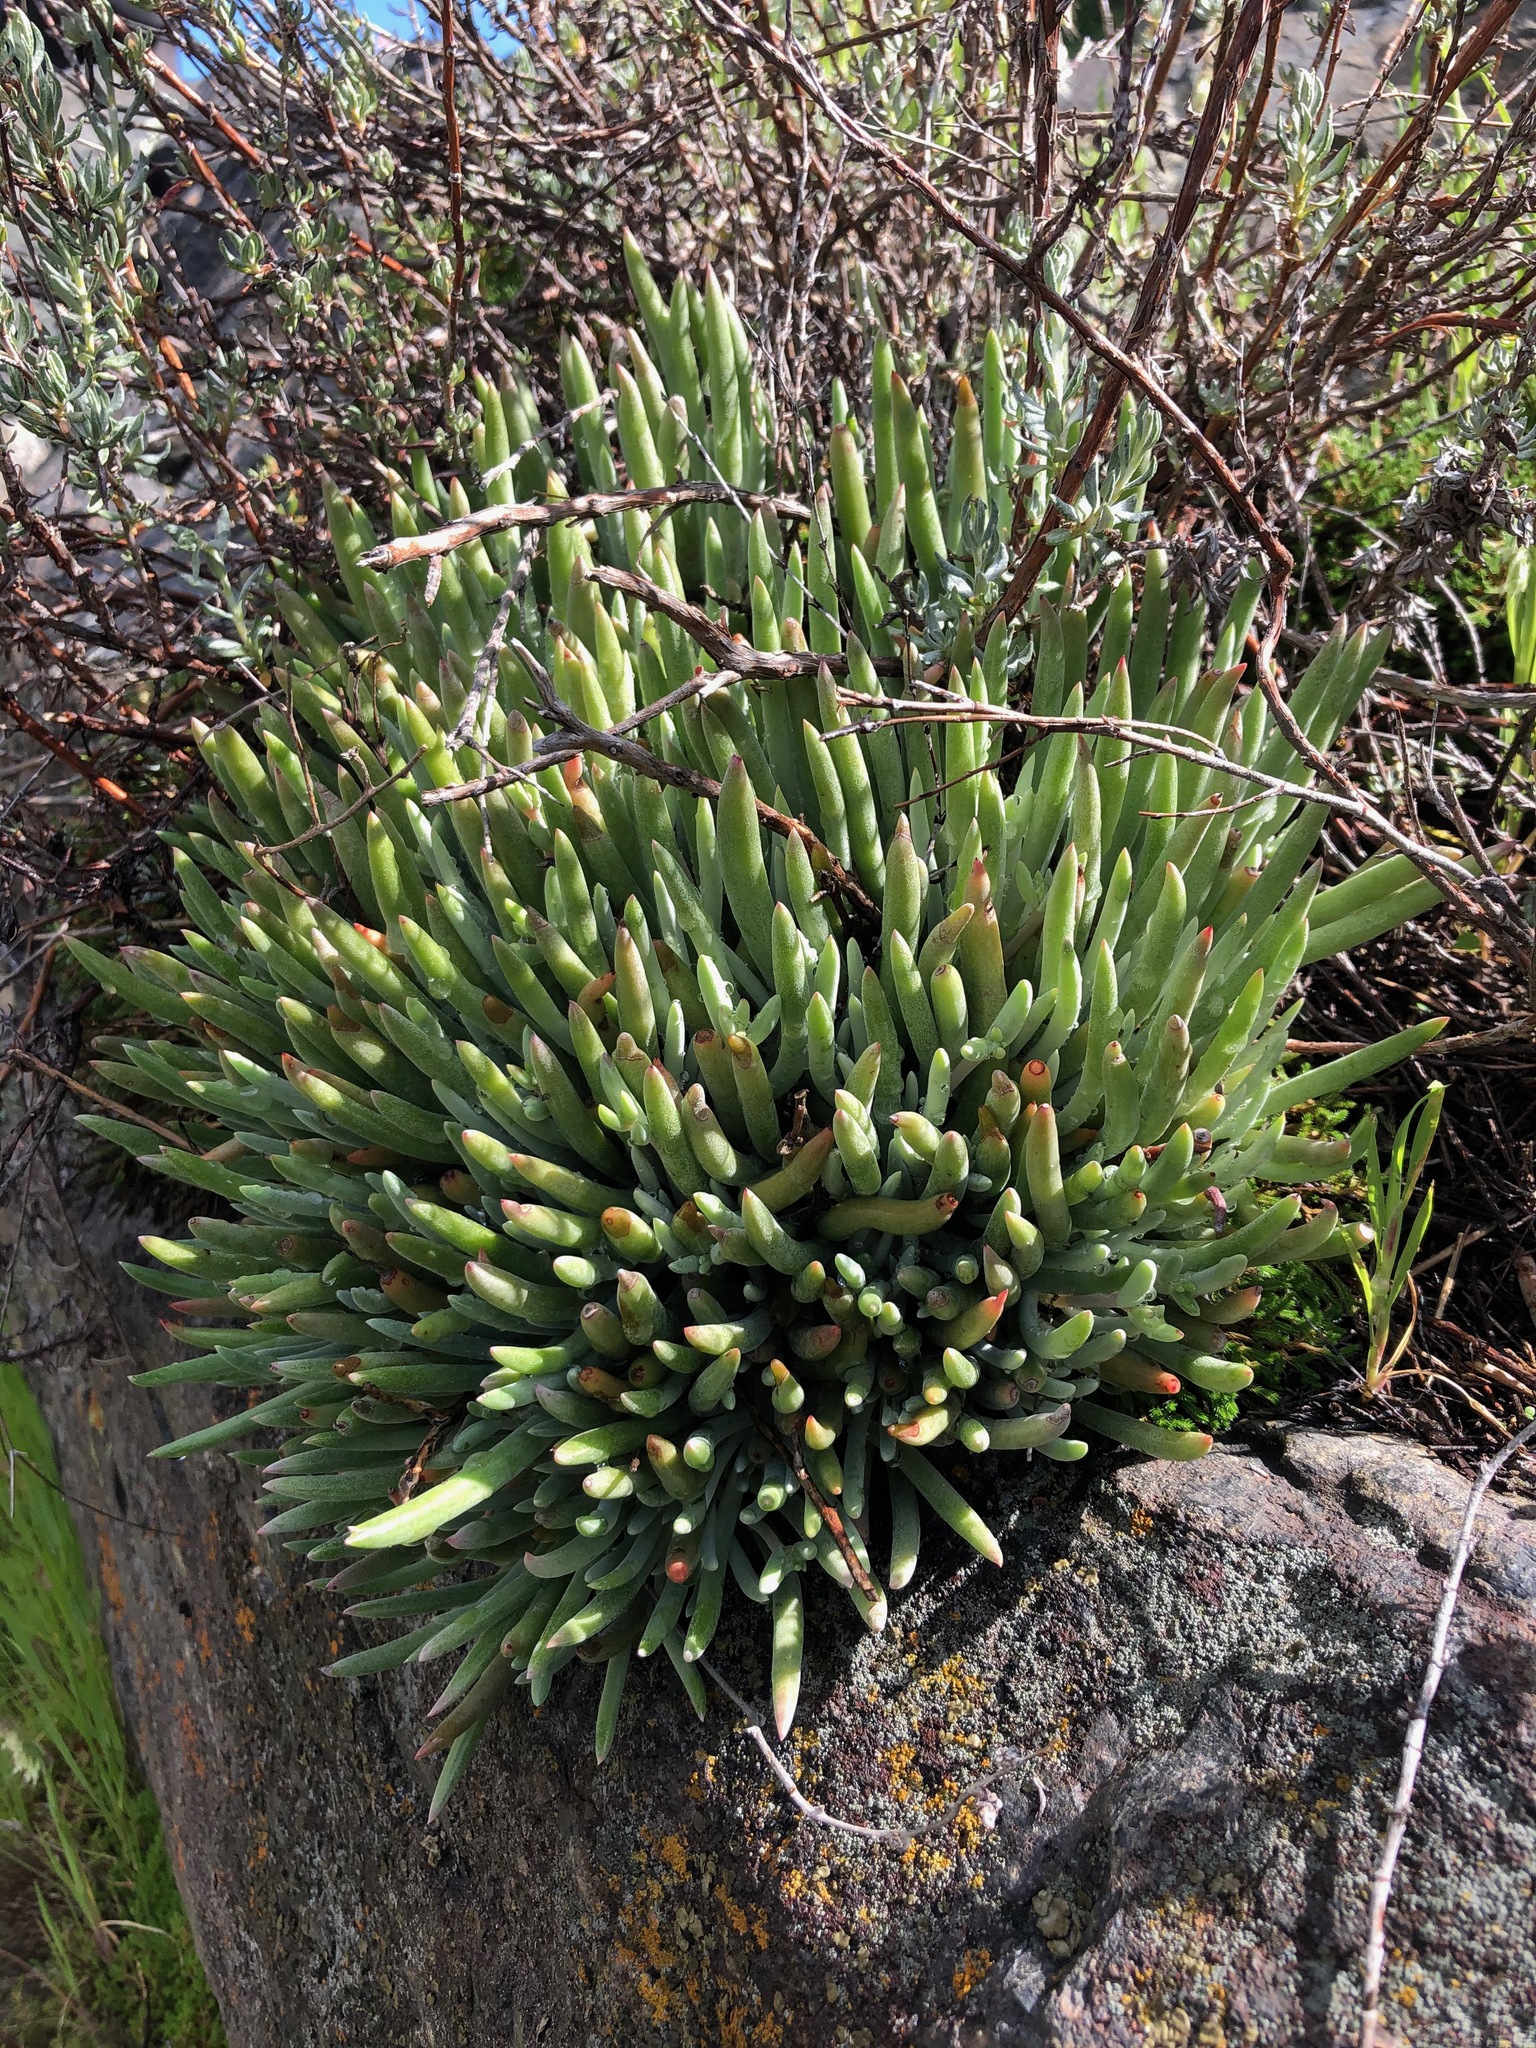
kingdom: Plantae
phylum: Tracheophyta
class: Magnoliopsida
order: Saxifragales
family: Crassulaceae
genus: Dudleya
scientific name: Dudleya attenuata
